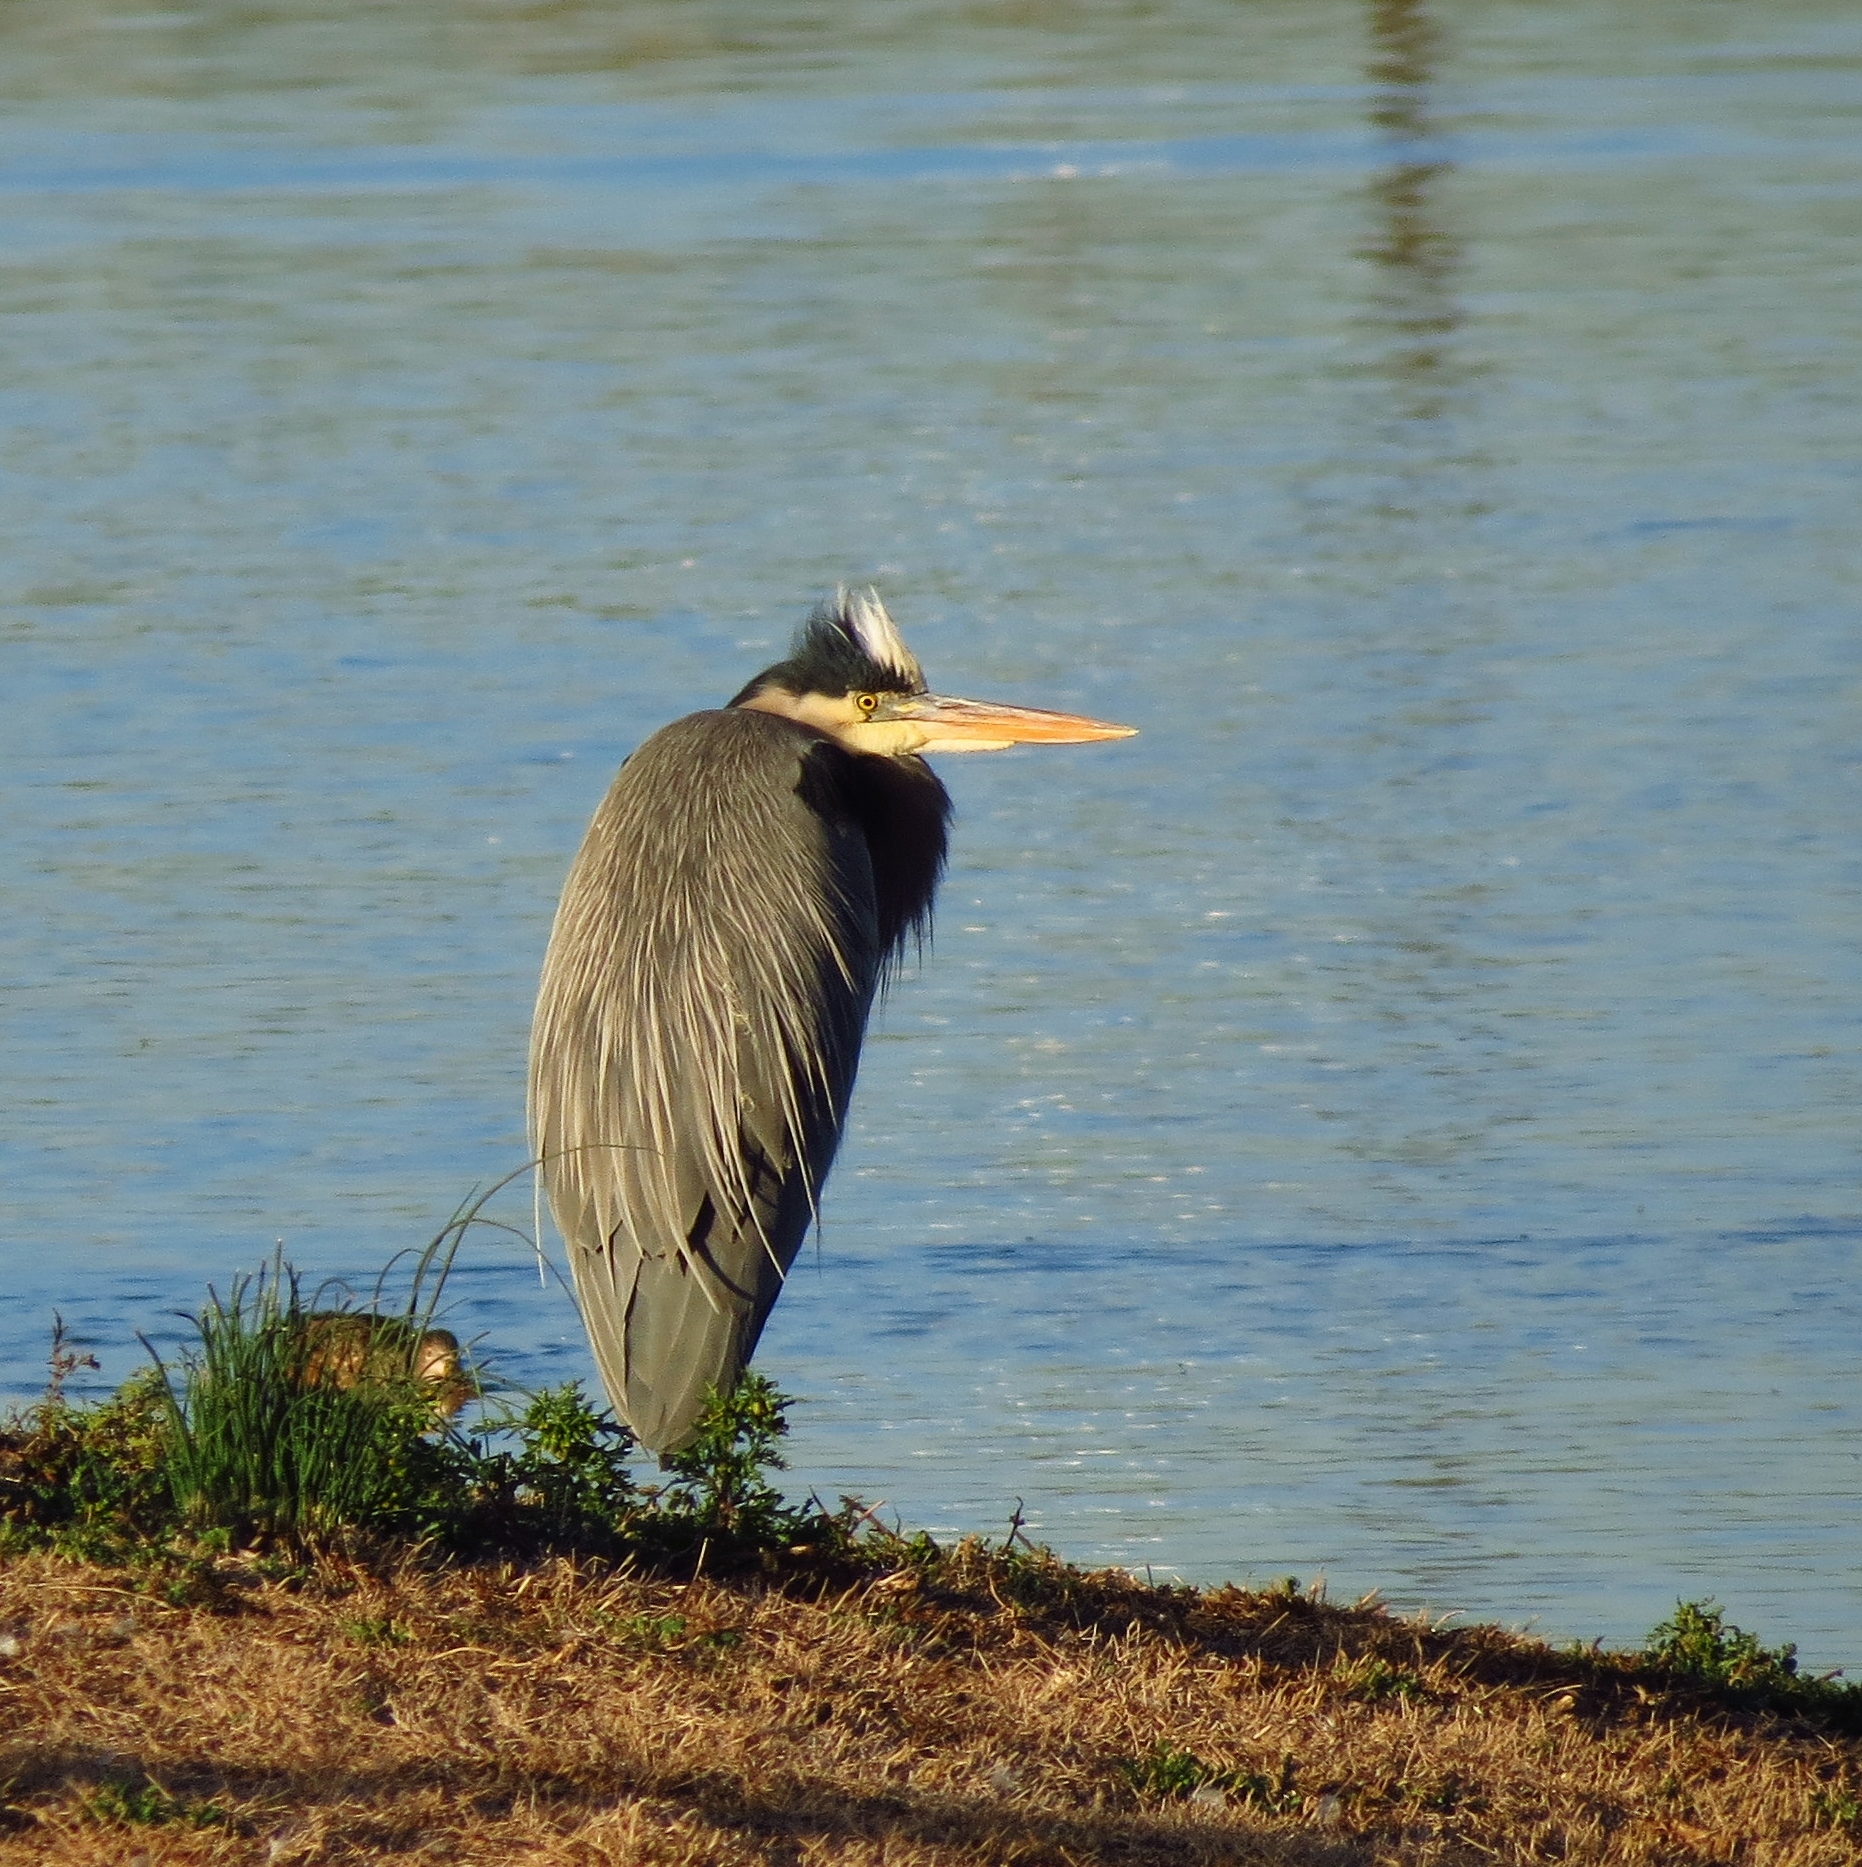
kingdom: Animalia
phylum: Chordata
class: Aves
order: Pelecaniformes
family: Ardeidae
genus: Ardea
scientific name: Ardea herodias
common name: Great blue heron
